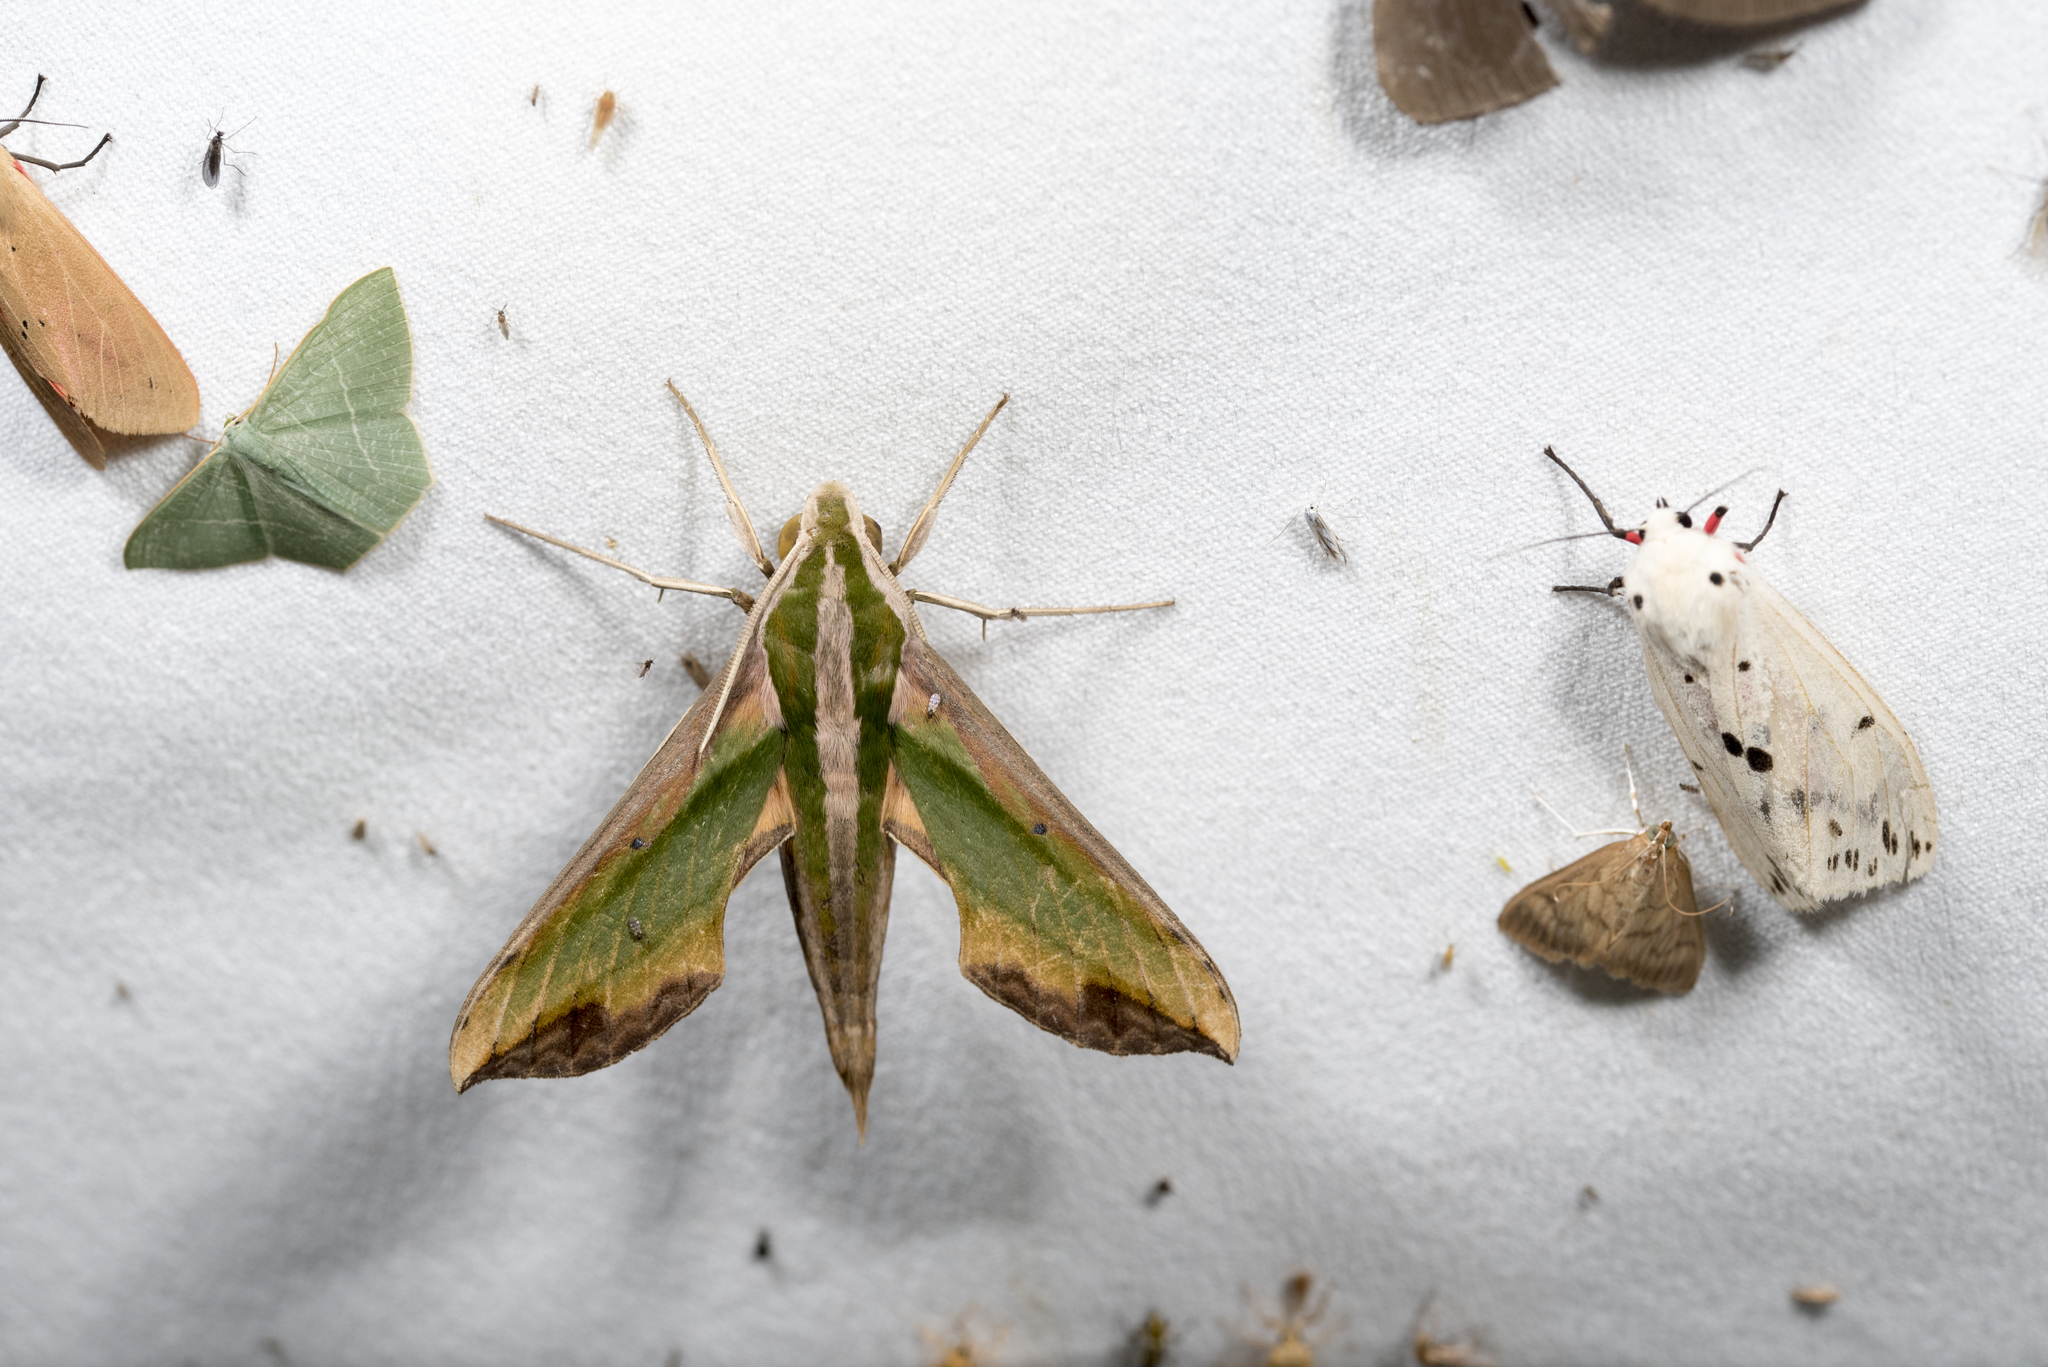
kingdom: Animalia
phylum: Arthropoda
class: Insecta
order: Lepidoptera
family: Sphingidae
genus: Pergesa
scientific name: Pergesa acteus
